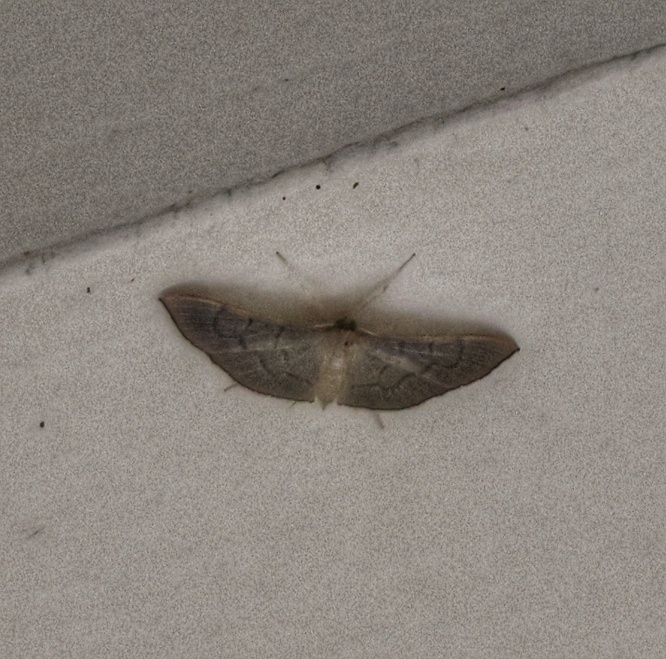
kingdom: Animalia
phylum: Arthropoda
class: Insecta
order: Lepidoptera
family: Crambidae
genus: Lamprophaia
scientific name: Lamprophaia ablactalis
